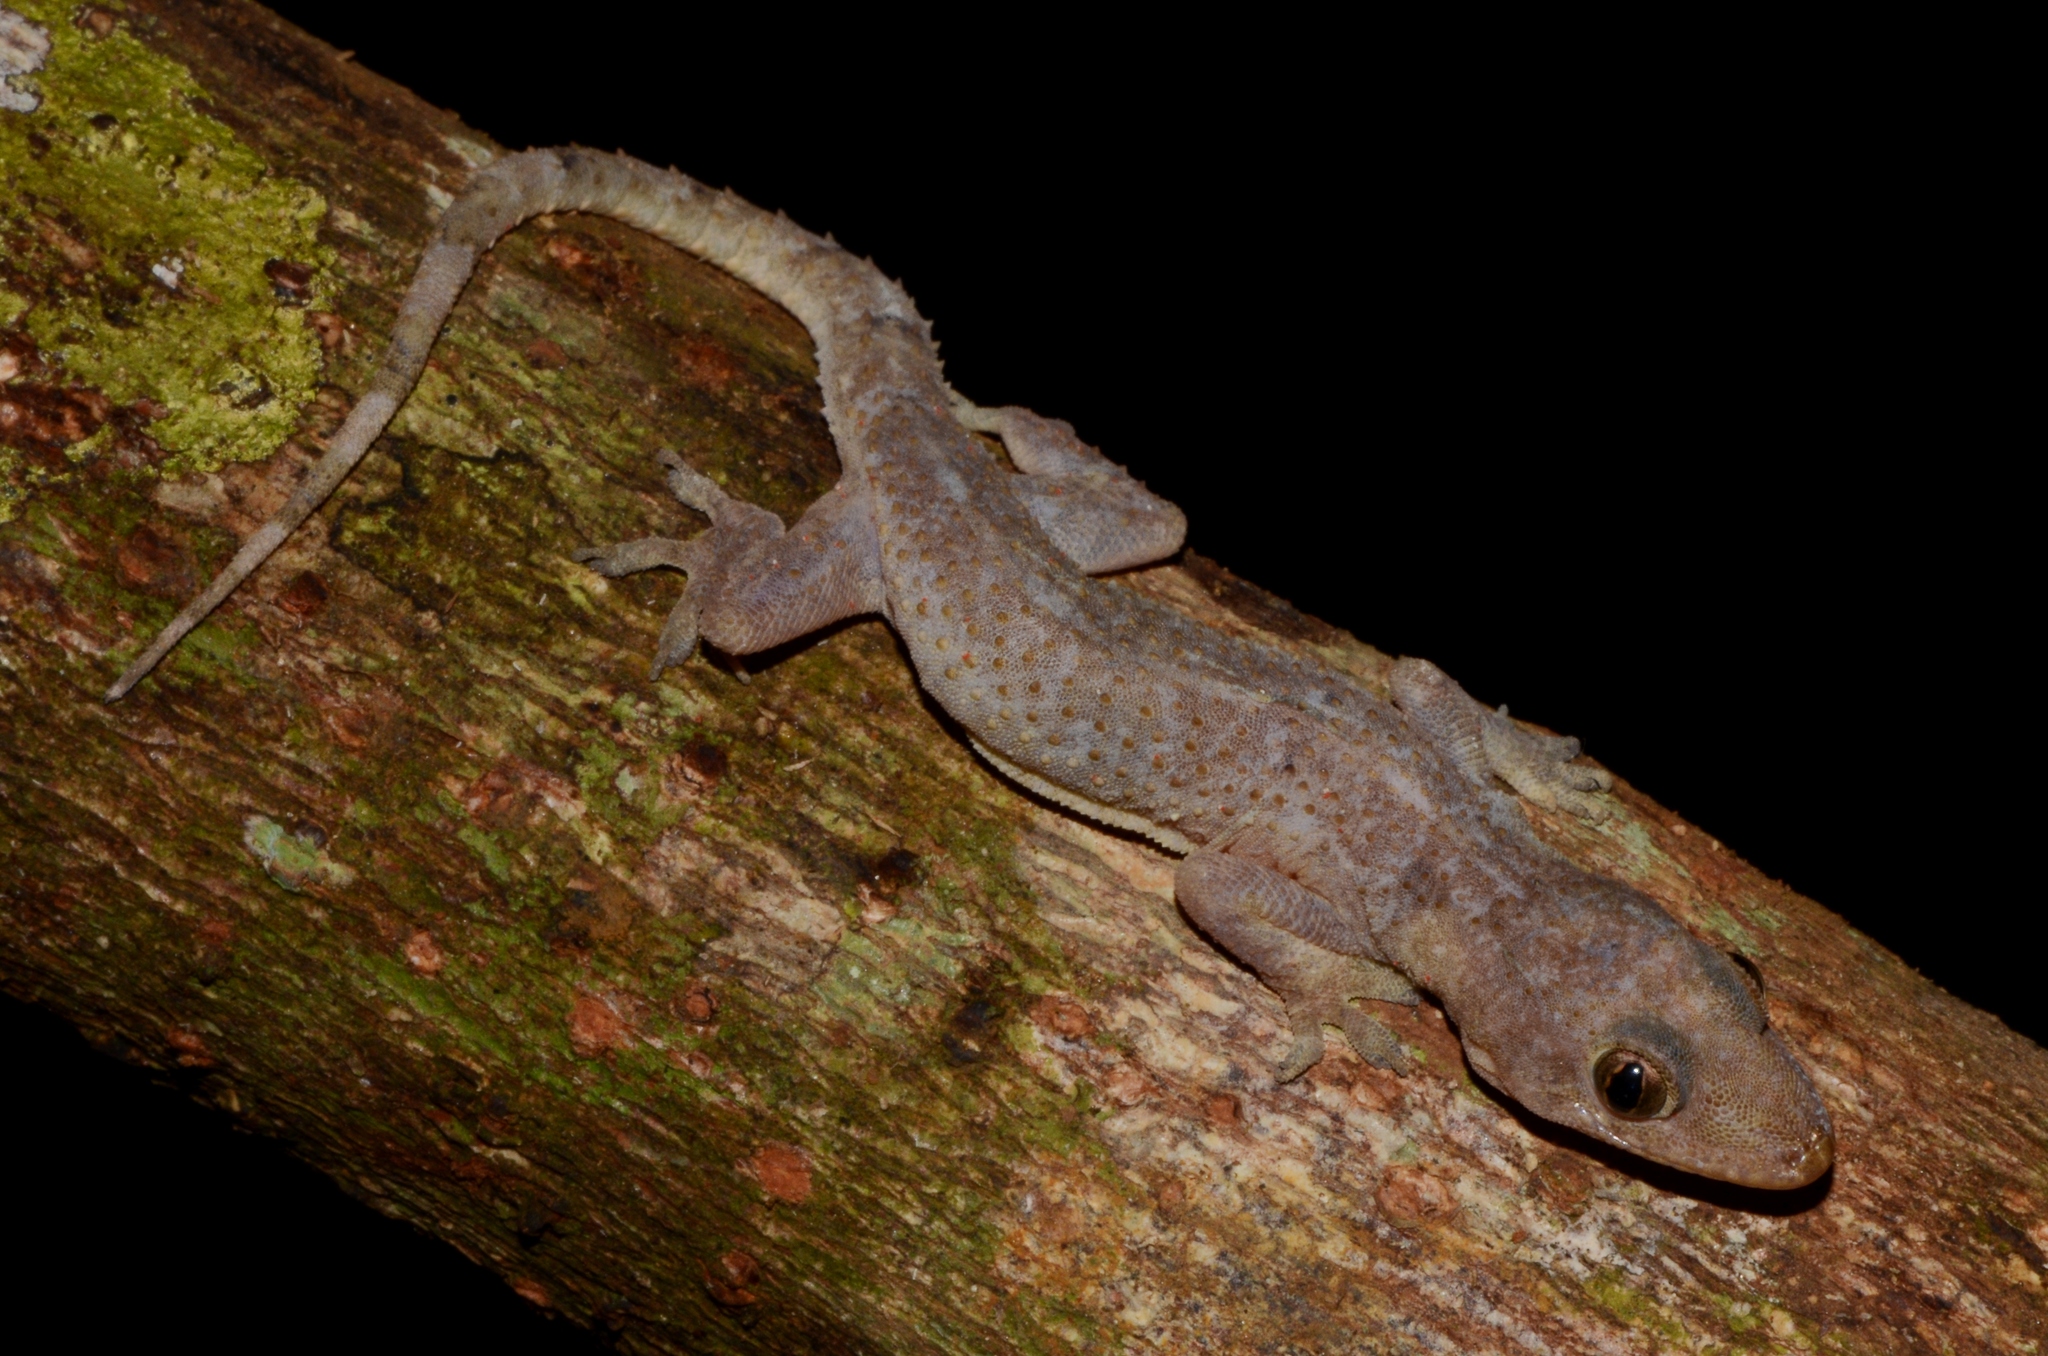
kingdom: Animalia
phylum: Chordata
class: Squamata
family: Gekkonidae
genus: Hemidactylus
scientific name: Hemidactylus mabouia
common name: House gecko
